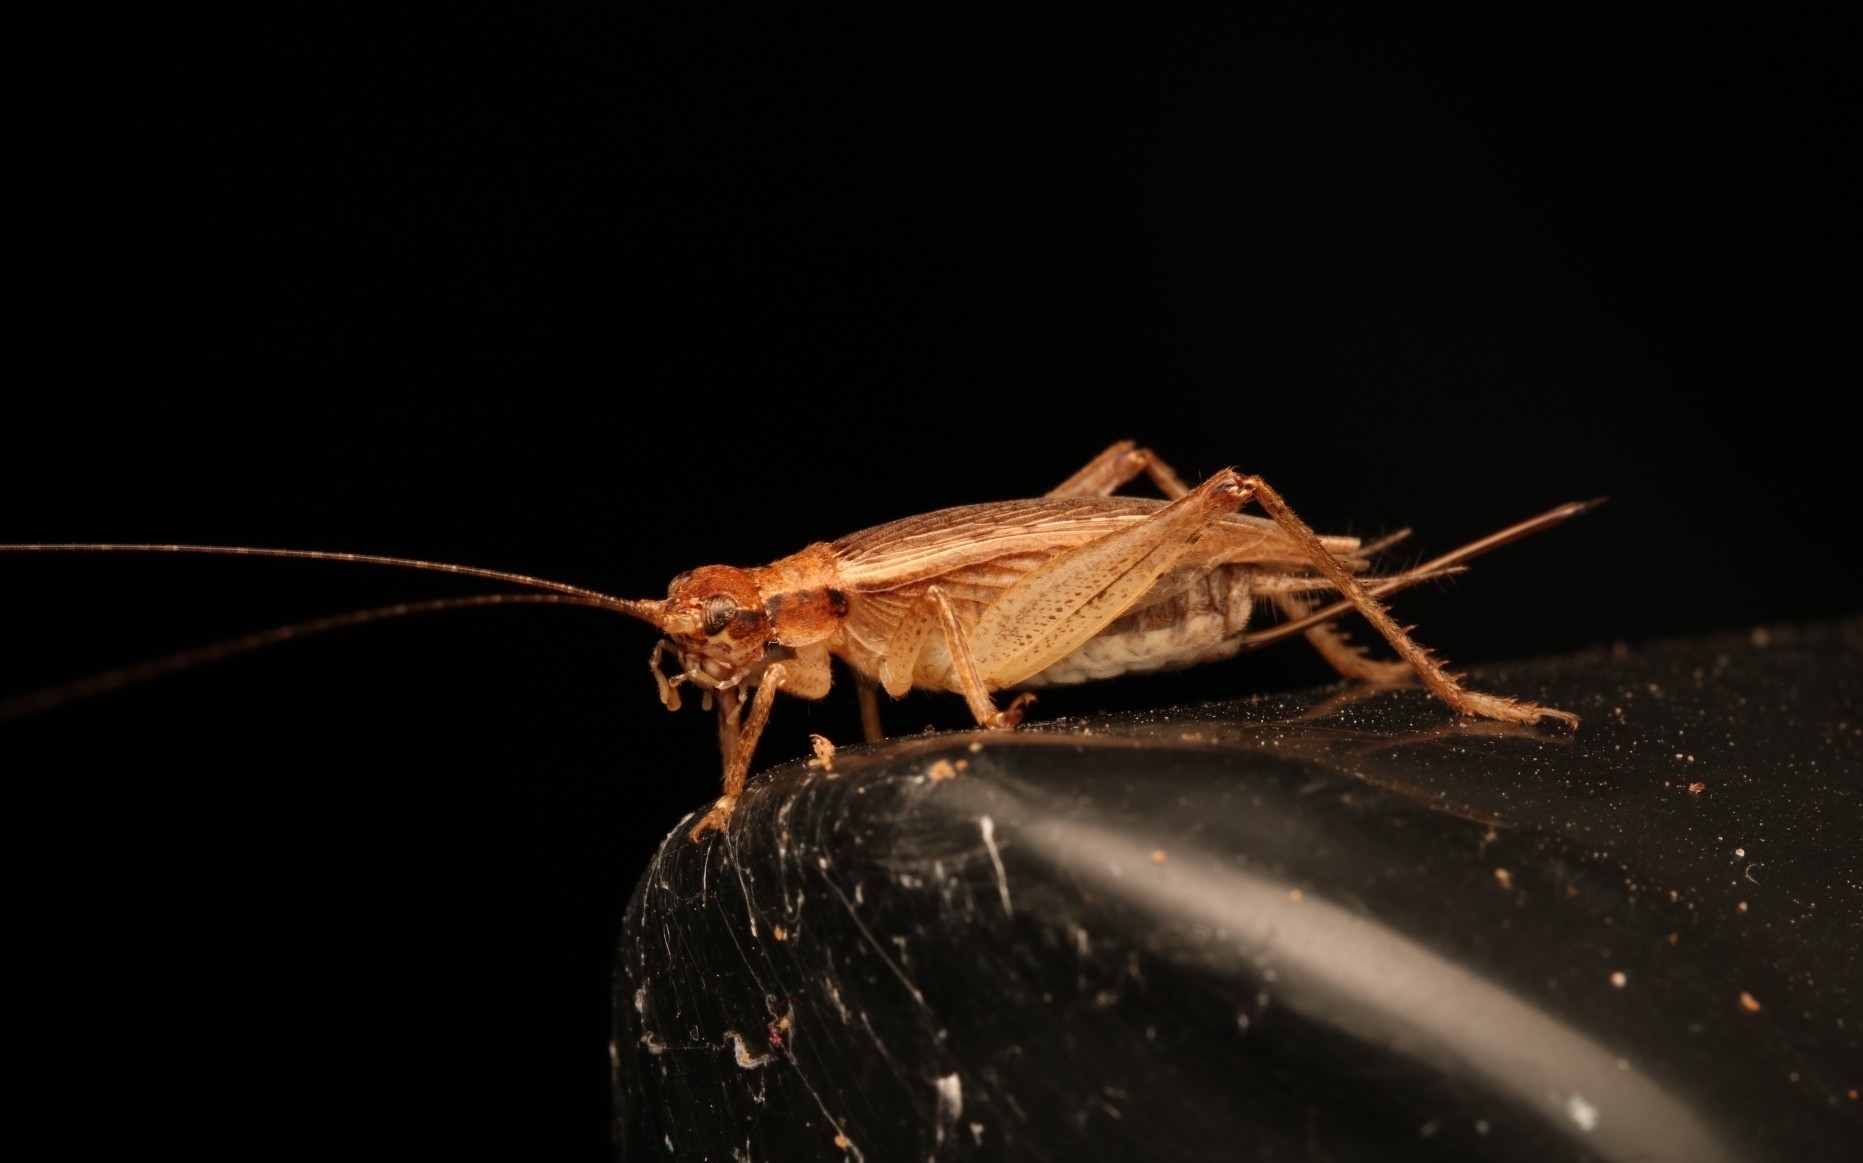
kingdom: Animalia
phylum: Arthropoda
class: Insecta
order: Orthoptera
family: Gryllidae
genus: Hapithus
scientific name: Hapithus saltator
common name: Jumping bush cricket
